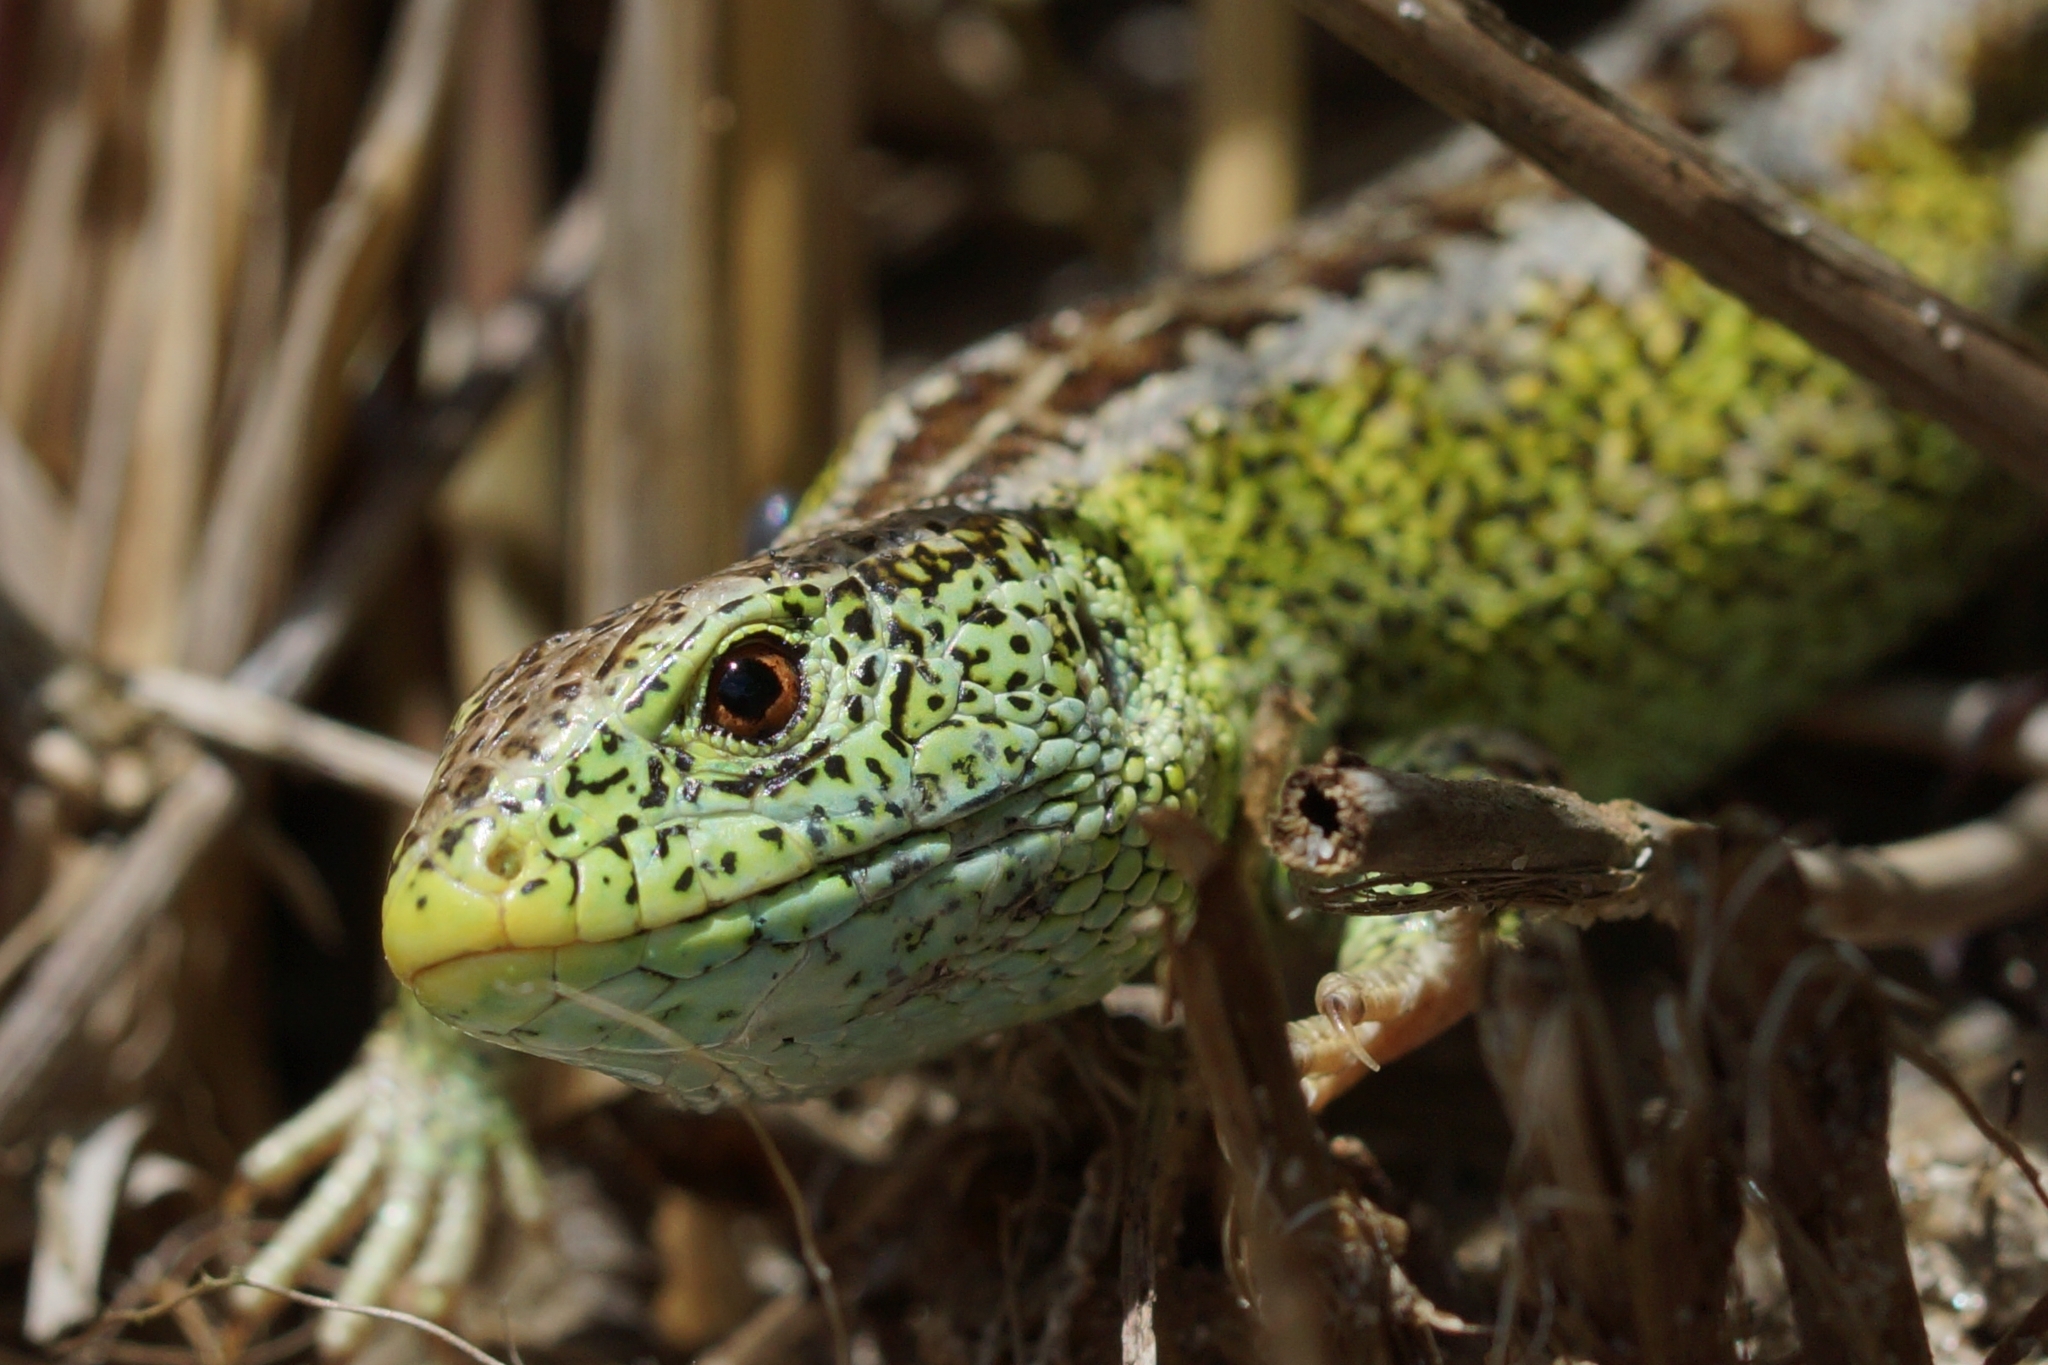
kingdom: Animalia
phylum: Chordata
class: Squamata
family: Lacertidae
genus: Lacerta
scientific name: Lacerta agilis
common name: Sand lizard
